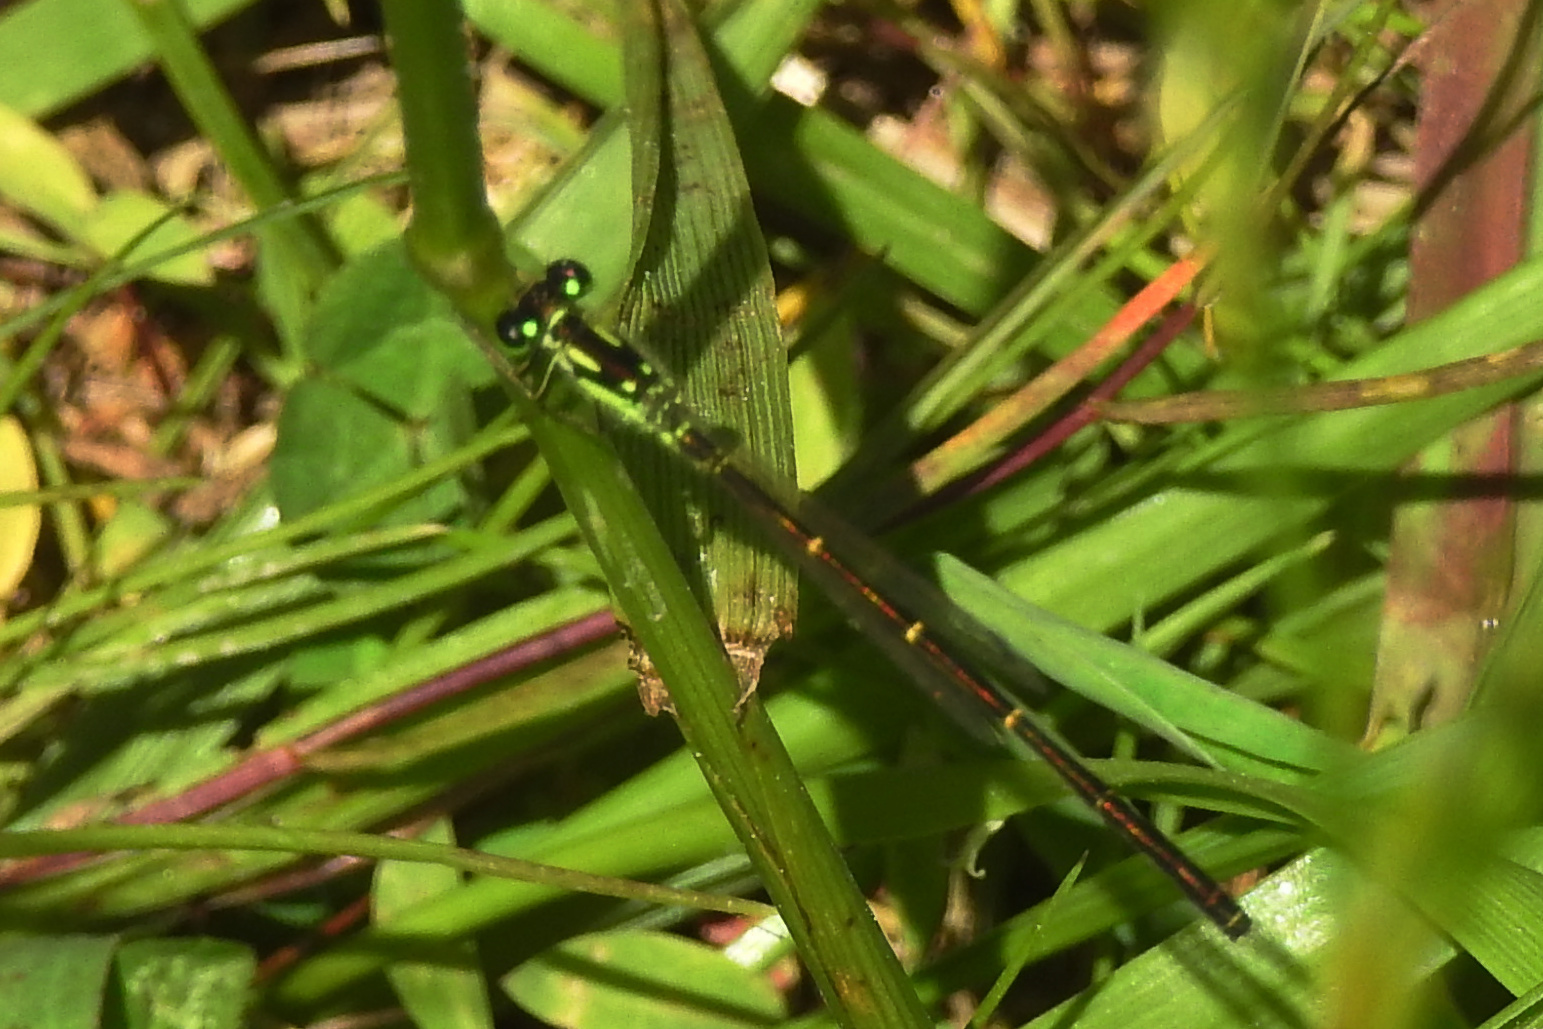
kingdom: Animalia
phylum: Arthropoda
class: Insecta
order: Odonata
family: Coenagrionidae
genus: Ischnura
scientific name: Ischnura posita
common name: Fragile forktail
